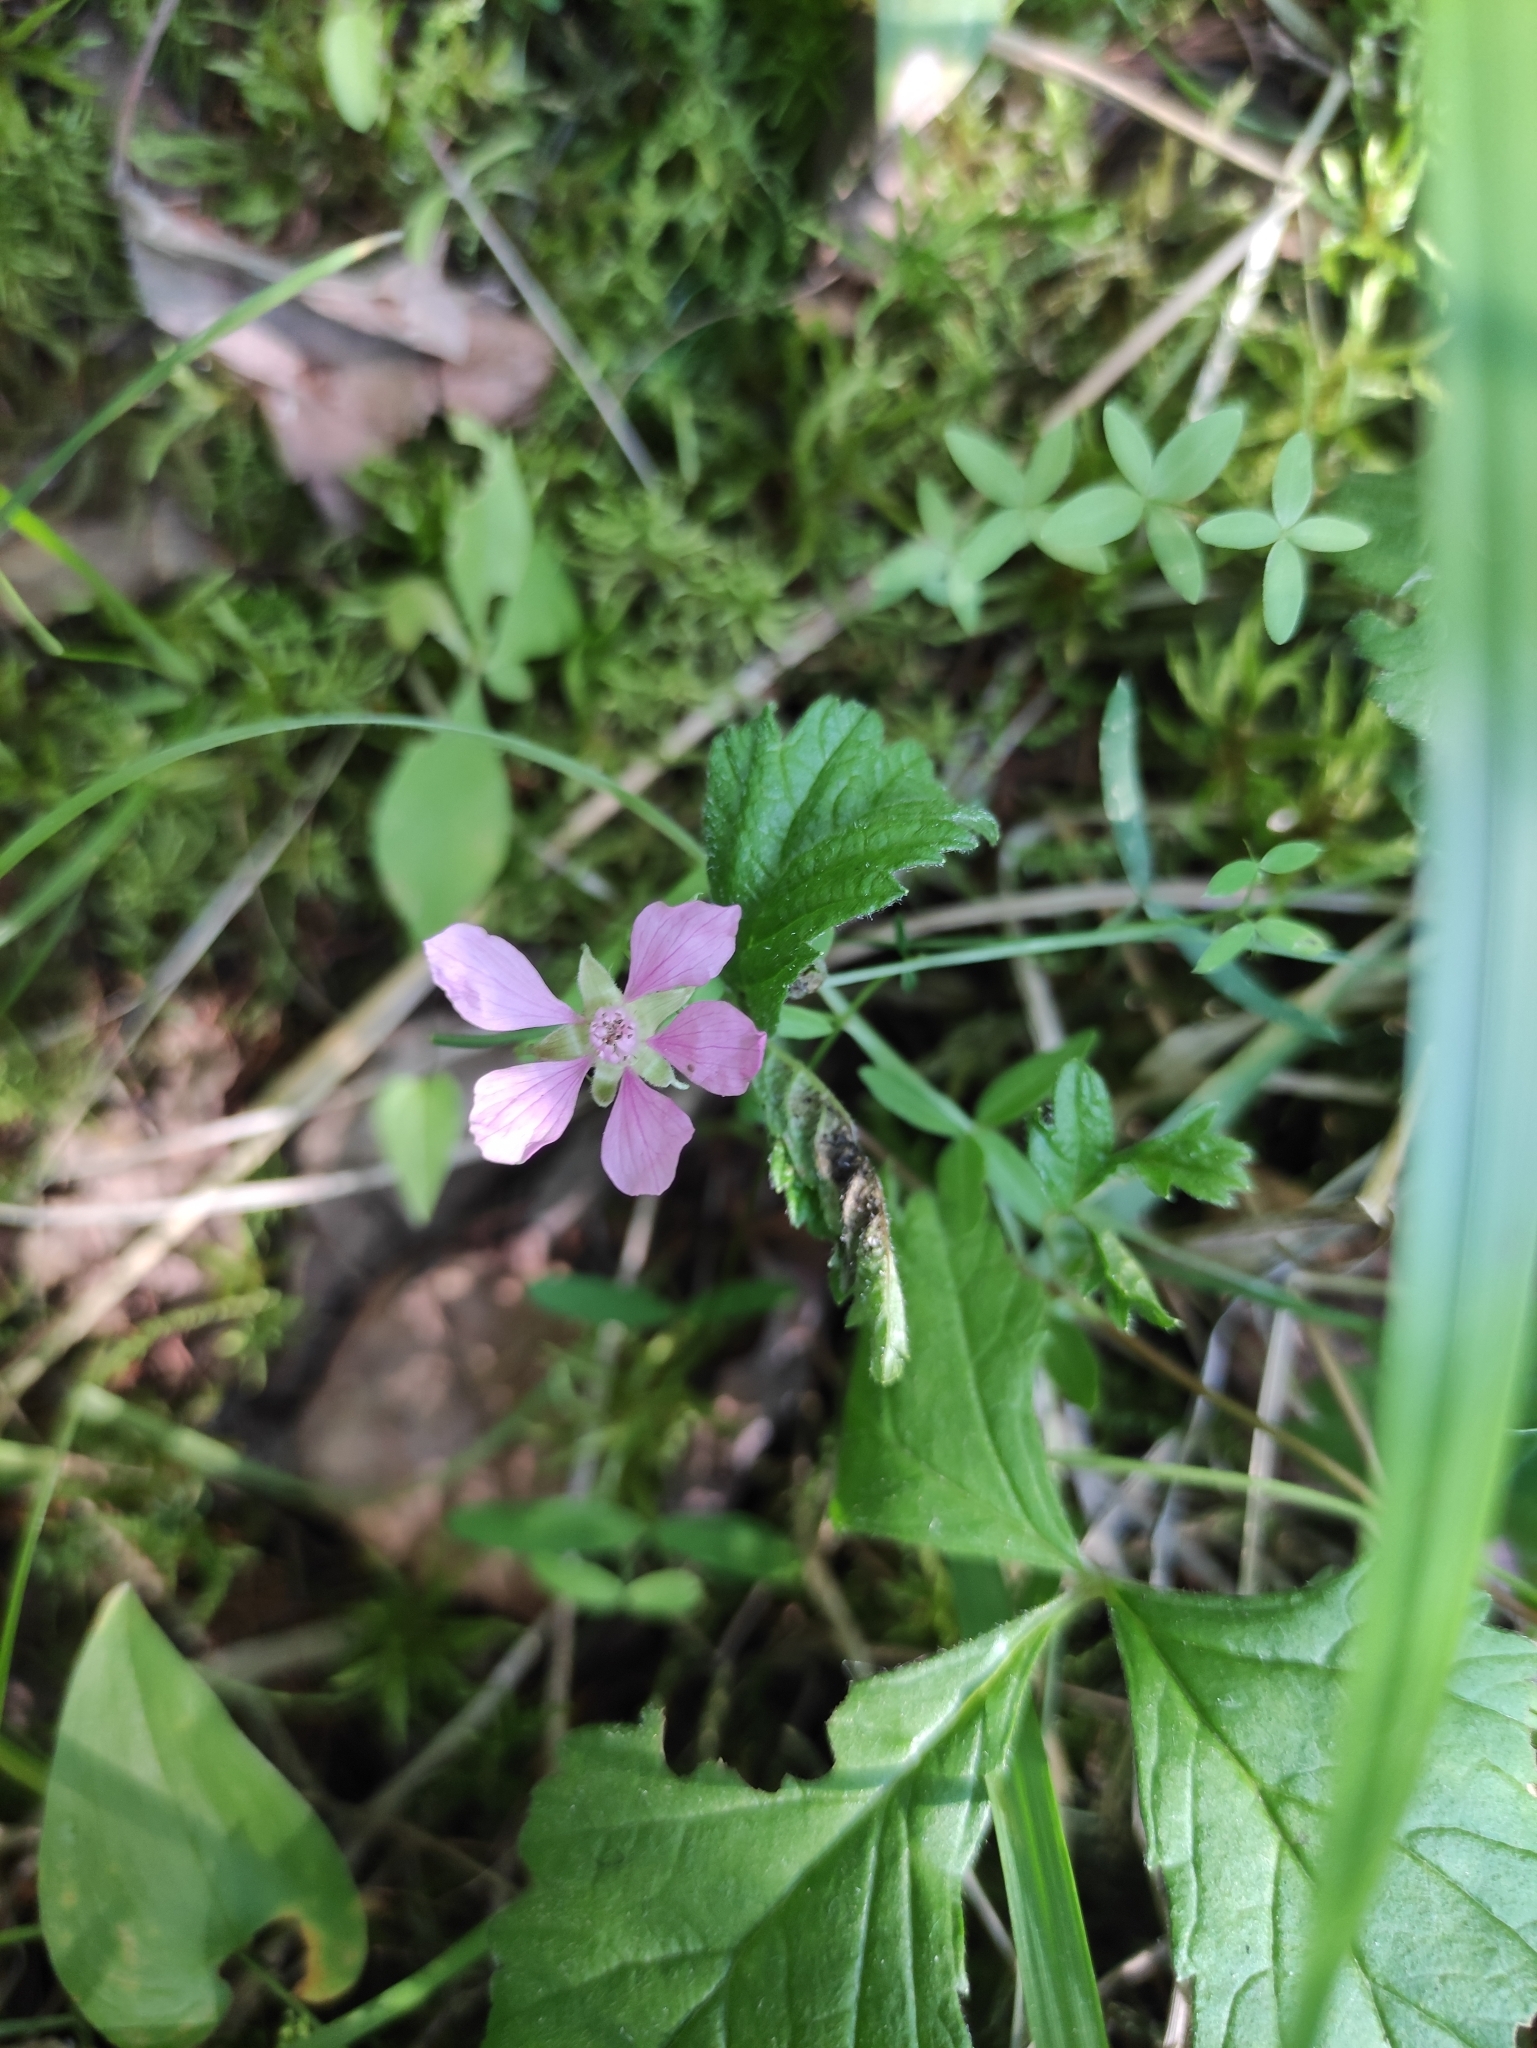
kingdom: Plantae
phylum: Tracheophyta
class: Magnoliopsida
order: Rosales
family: Rosaceae
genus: Rubus
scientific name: Rubus arcticus
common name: Arctic bramble
